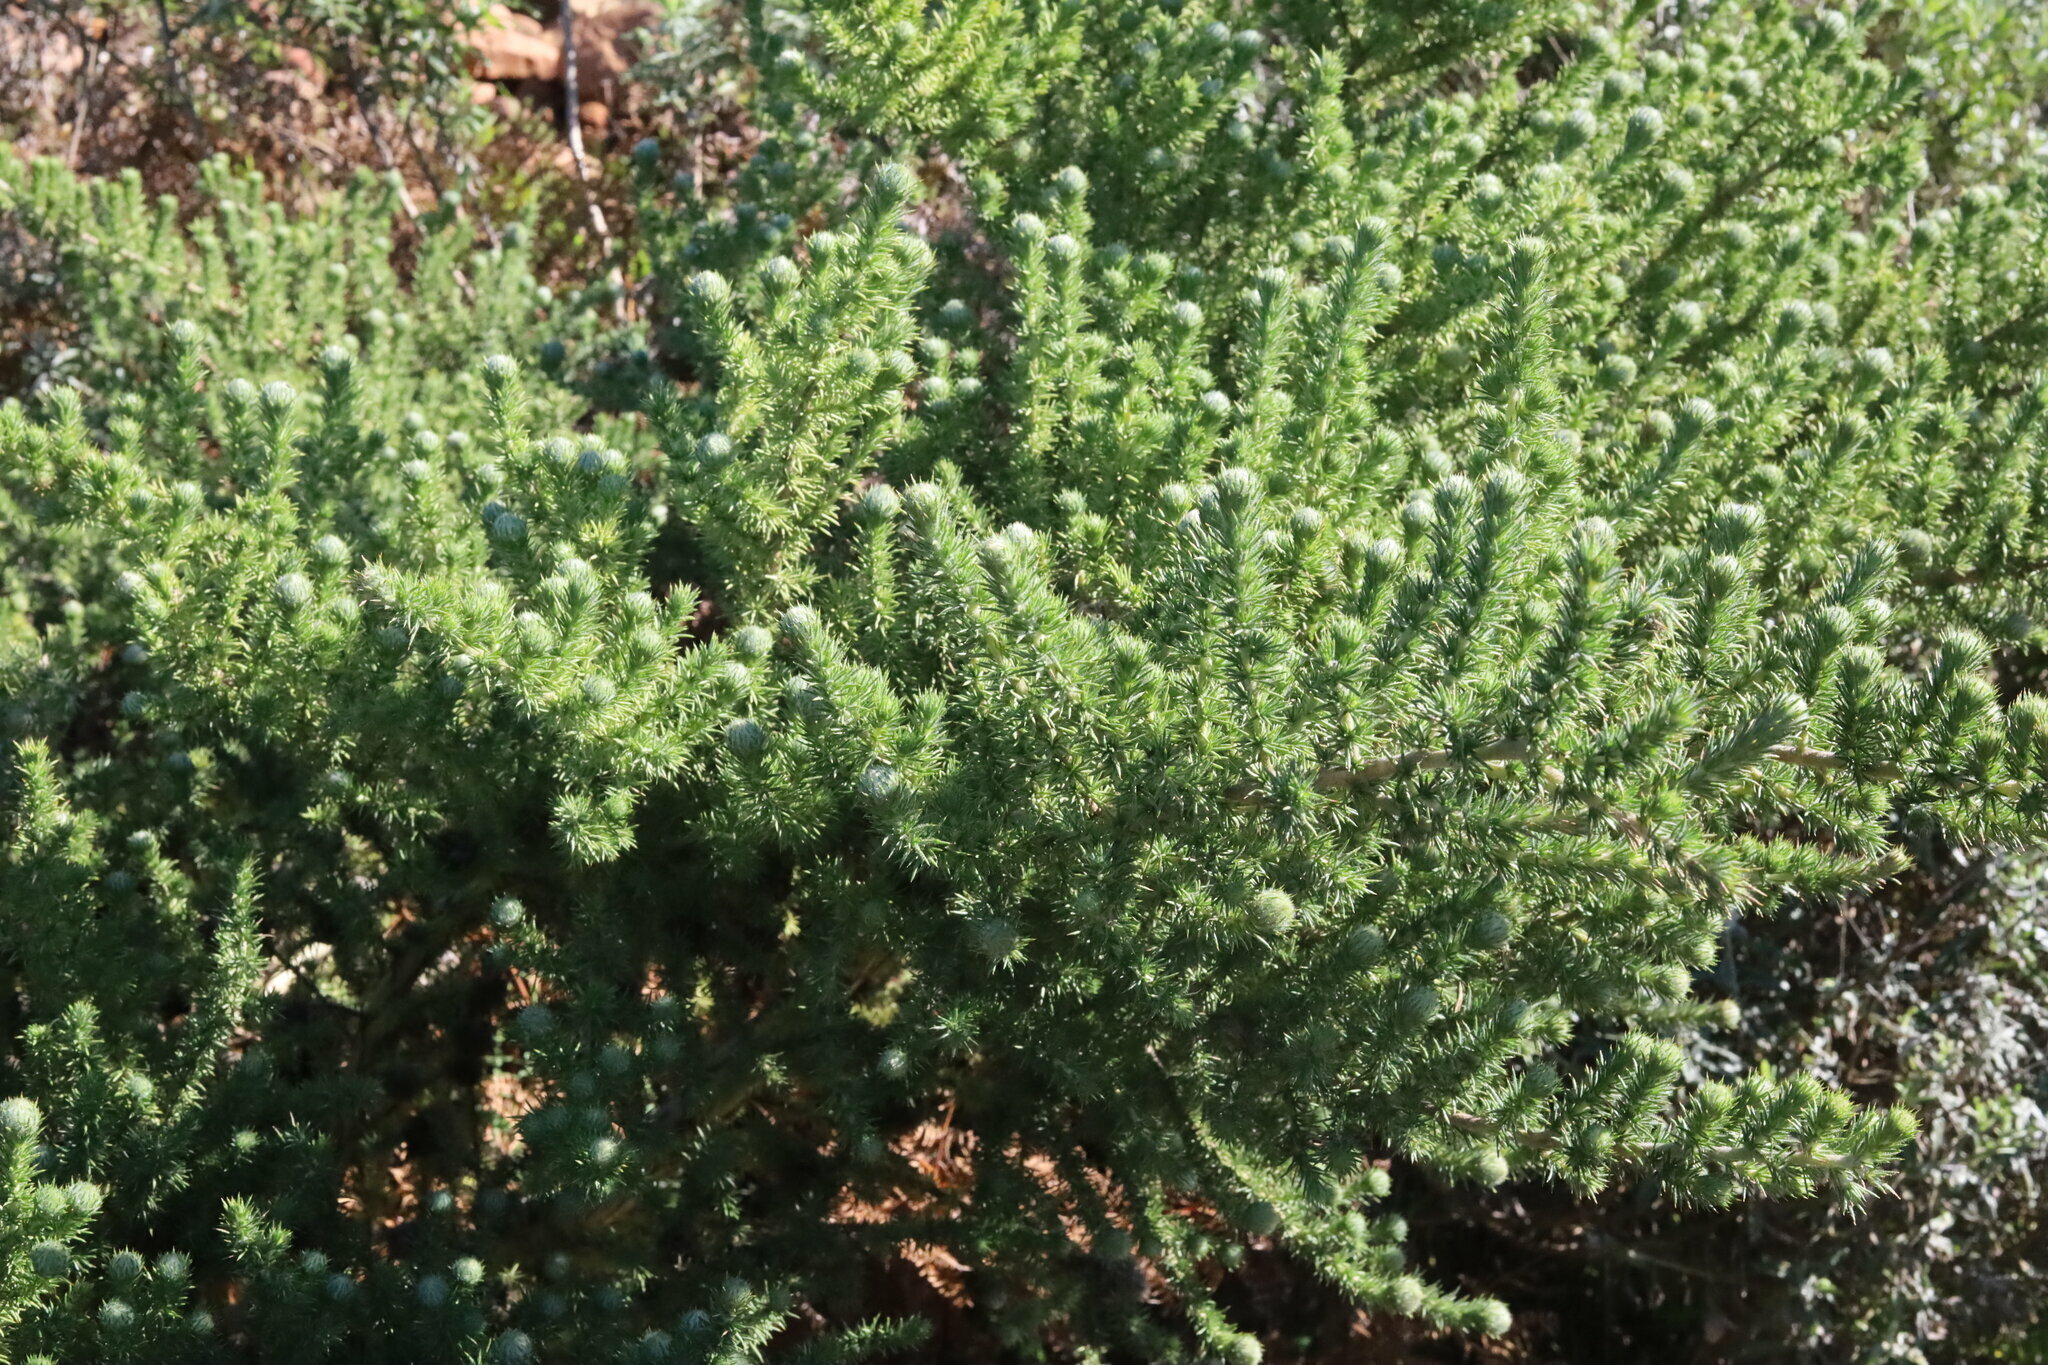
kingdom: Plantae
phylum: Tracheophyta
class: Magnoliopsida
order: Fabales
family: Fabaceae
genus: Aspalathus
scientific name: Aspalathus chenopoda
